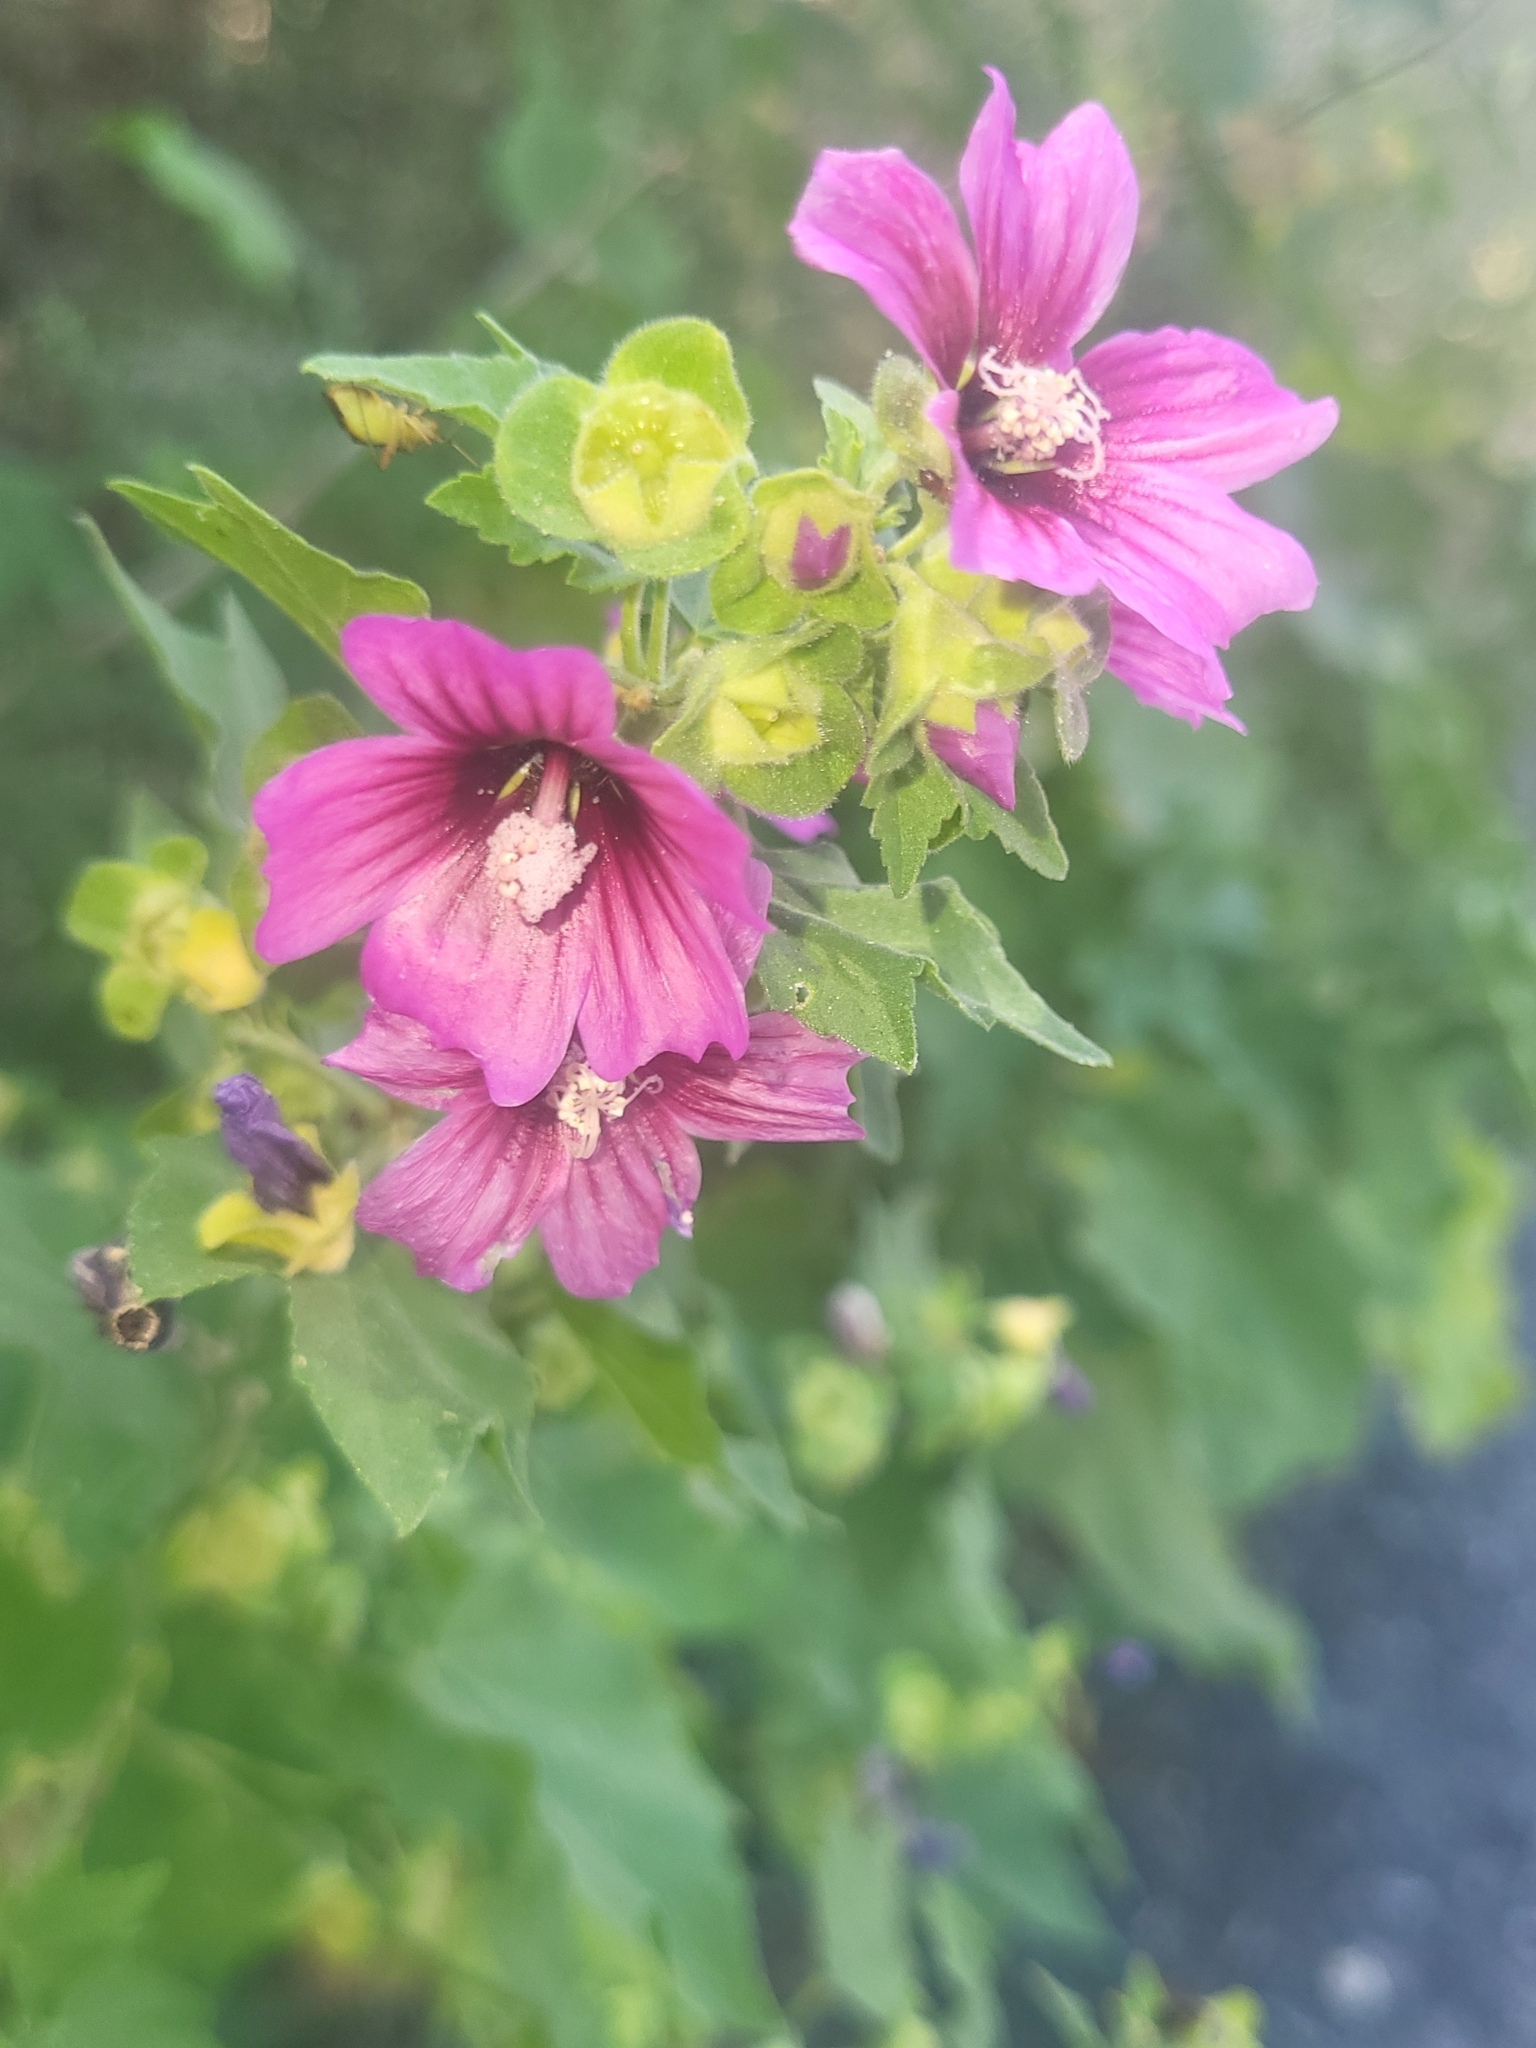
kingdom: Plantae
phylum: Tracheophyta
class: Magnoliopsida
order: Malvales
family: Malvaceae
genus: Malva
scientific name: Malva arborea
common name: Tree mallow
